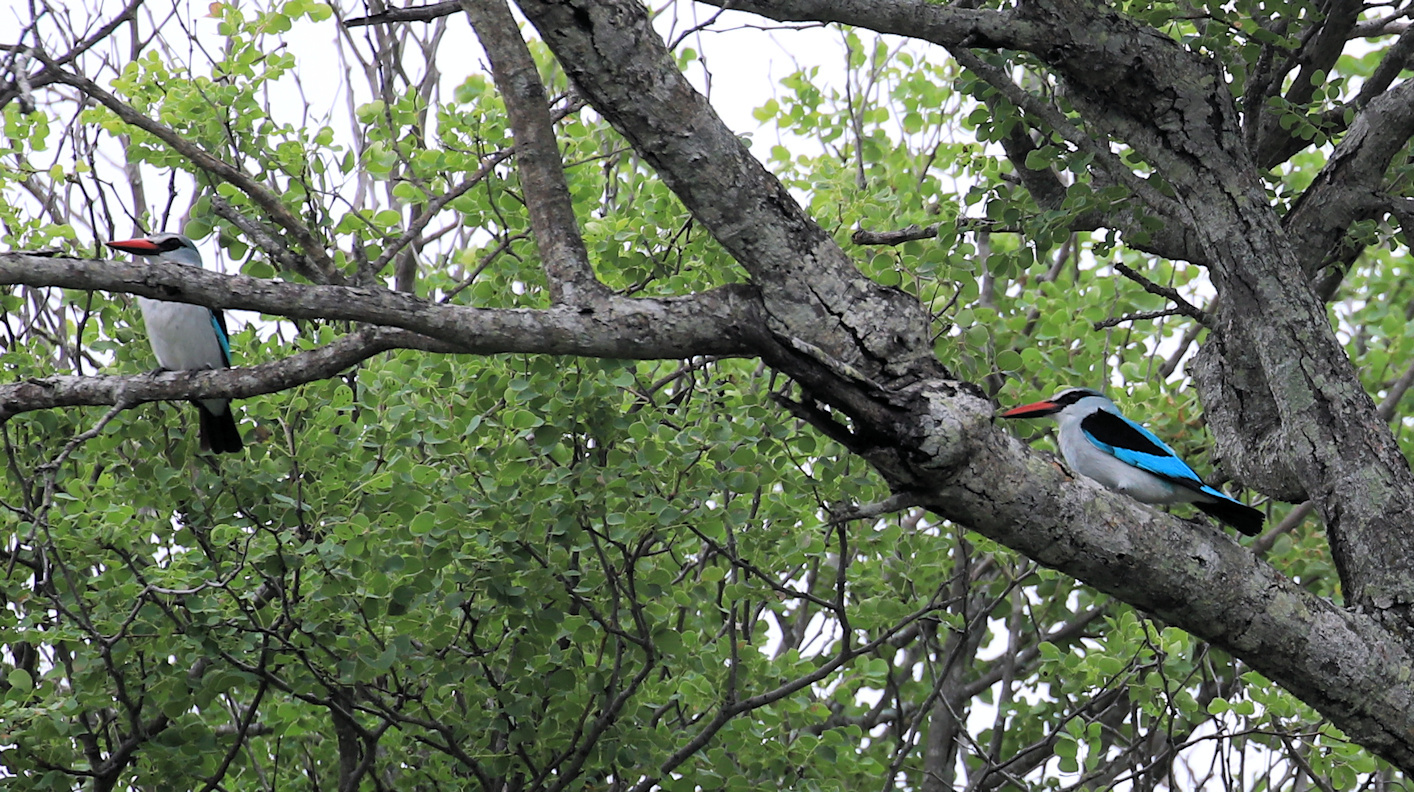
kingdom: Animalia
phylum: Chordata
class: Aves
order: Coraciiformes
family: Alcedinidae
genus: Halcyon
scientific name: Halcyon senegalensis
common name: Woodland kingfisher
